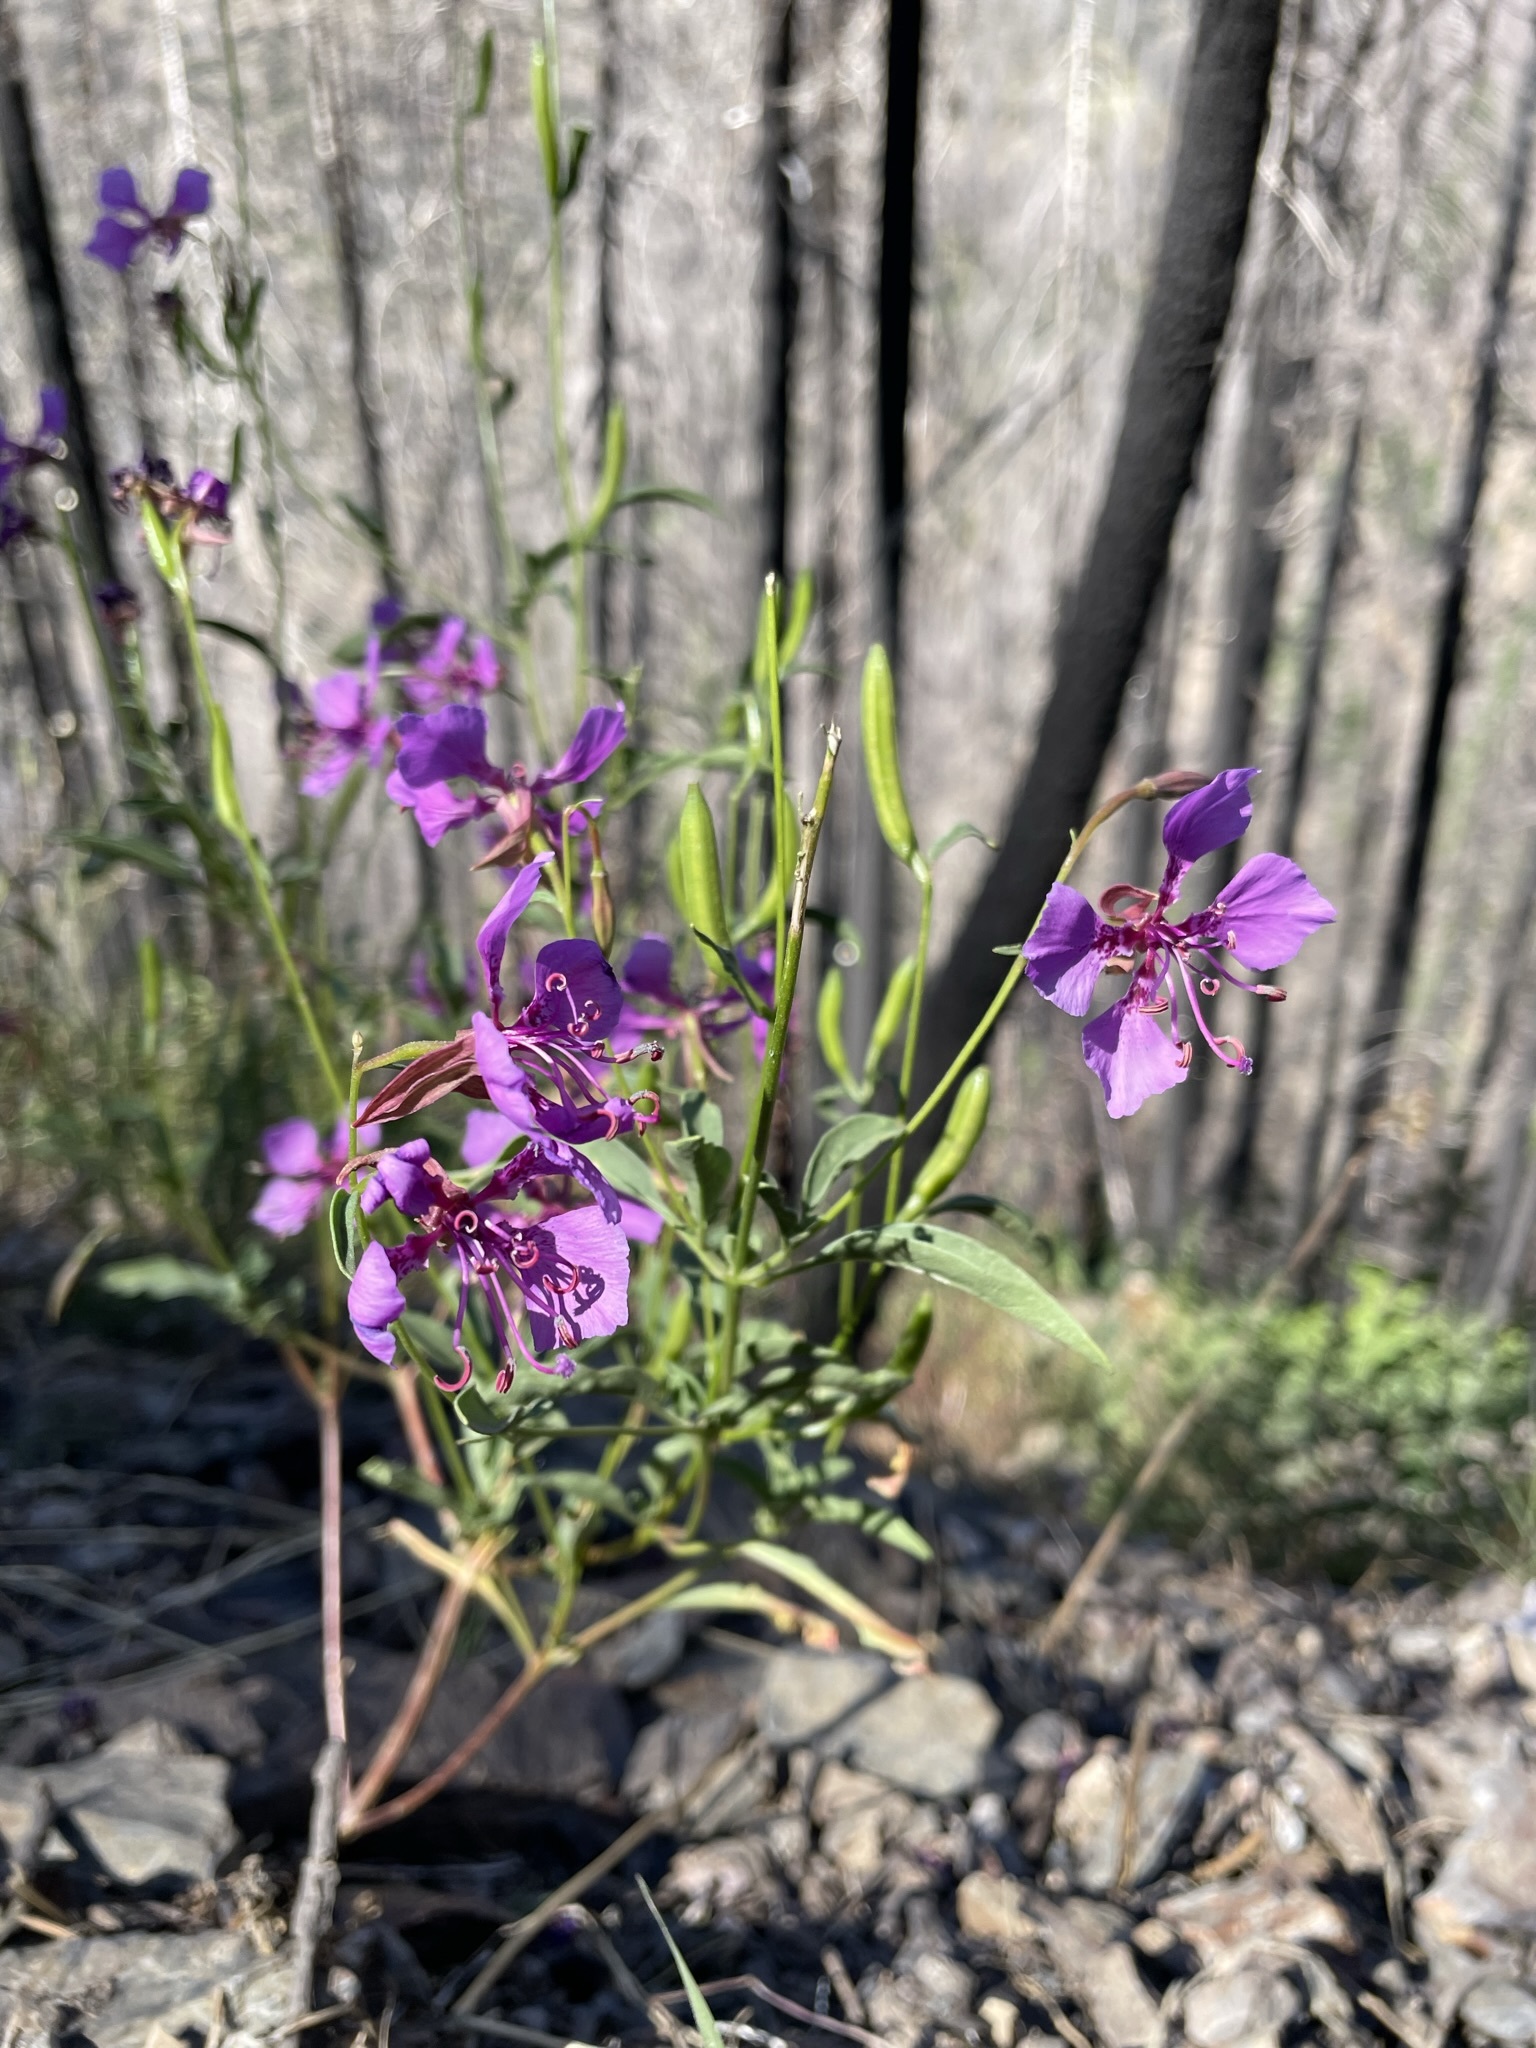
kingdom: Plantae
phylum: Tracheophyta
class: Magnoliopsida
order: Myrtales
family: Onagraceae
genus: Clarkia
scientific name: Clarkia mildrediae
